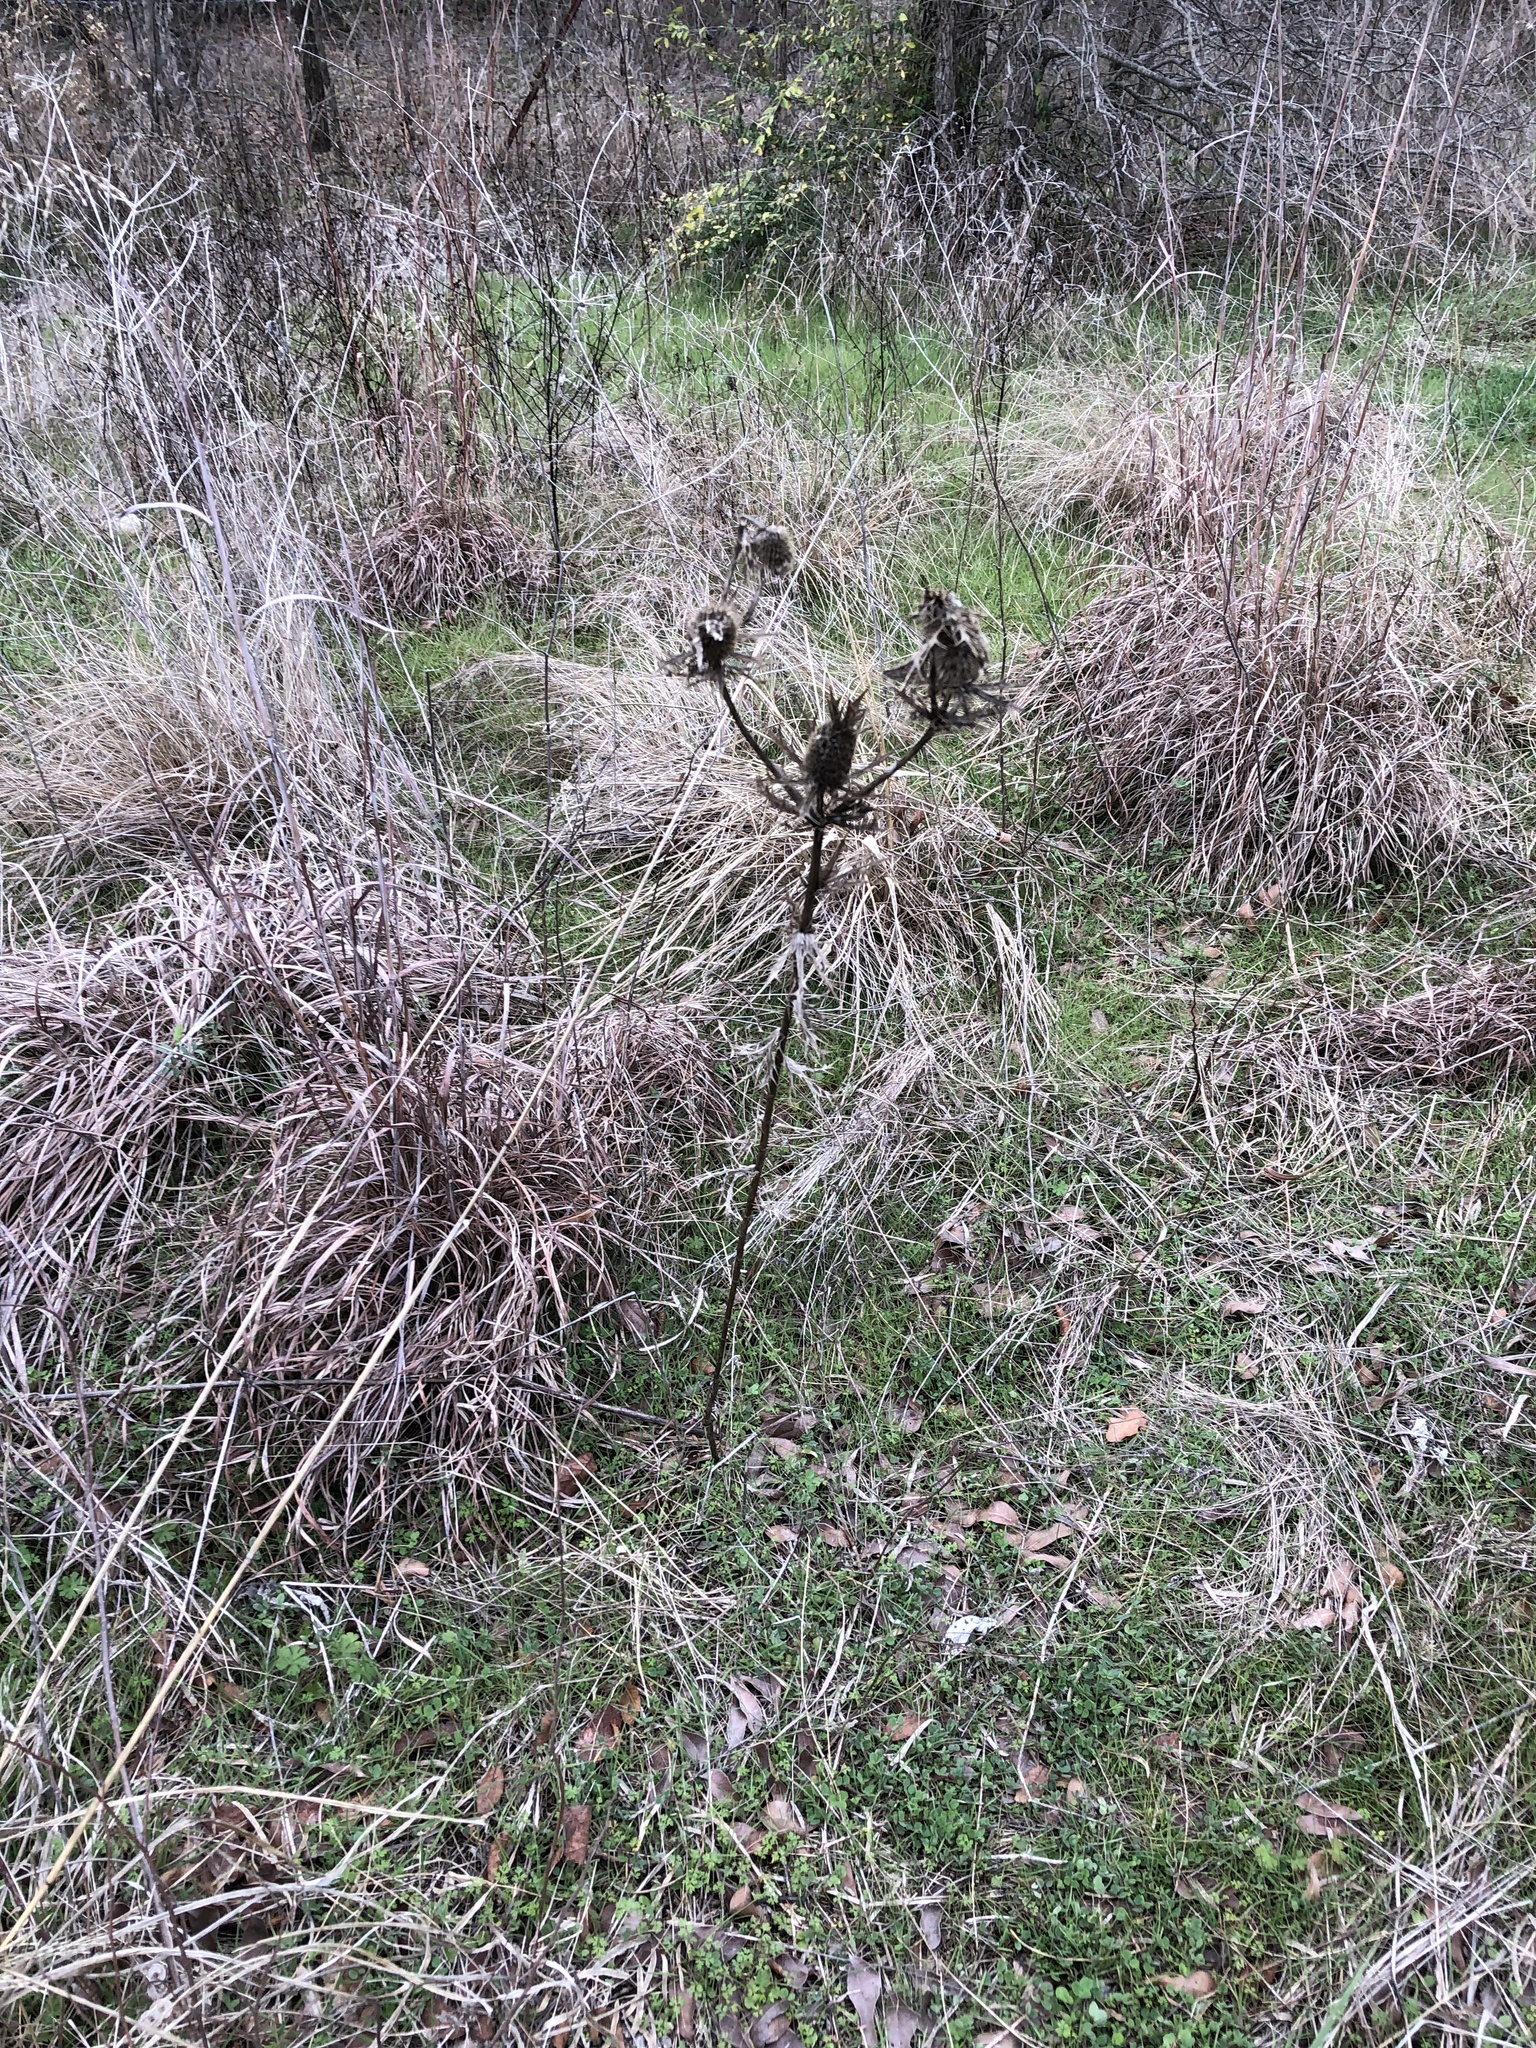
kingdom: Plantae
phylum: Tracheophyta
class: Magnoliopsida
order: Apiales
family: Apiaceae
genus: Eryngium
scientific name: Eryngium leavenworthii
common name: Leavenworth's eryngo
